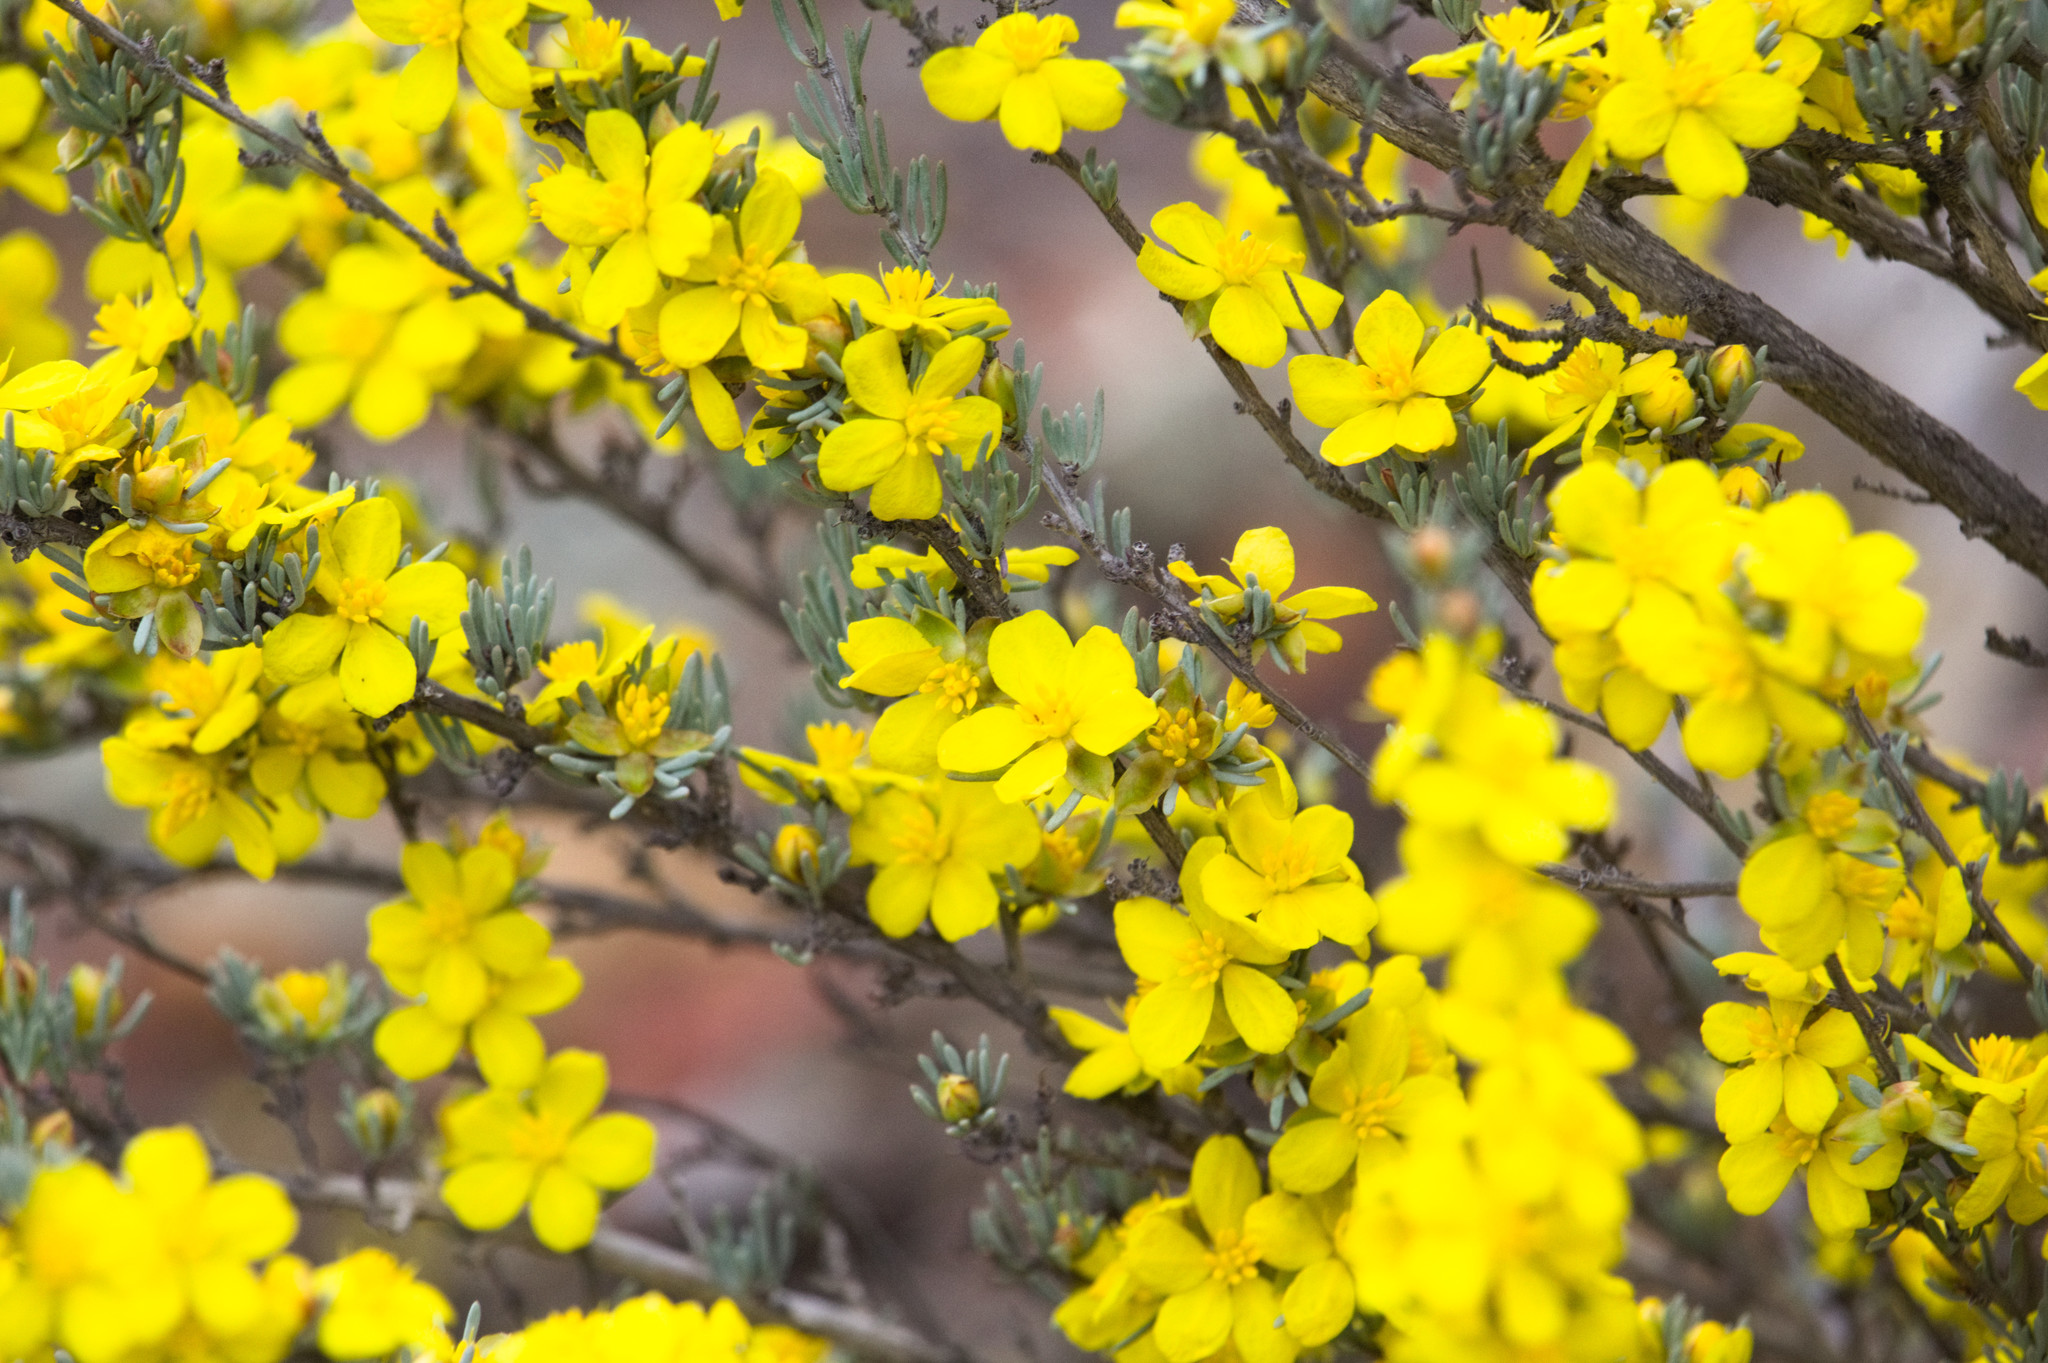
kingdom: Plantae
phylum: Tracheophyta
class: Magnoliopsida
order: Dilleniales
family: Dilleniaceae
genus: Hibbertia
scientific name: Hibbertia hemignosta
